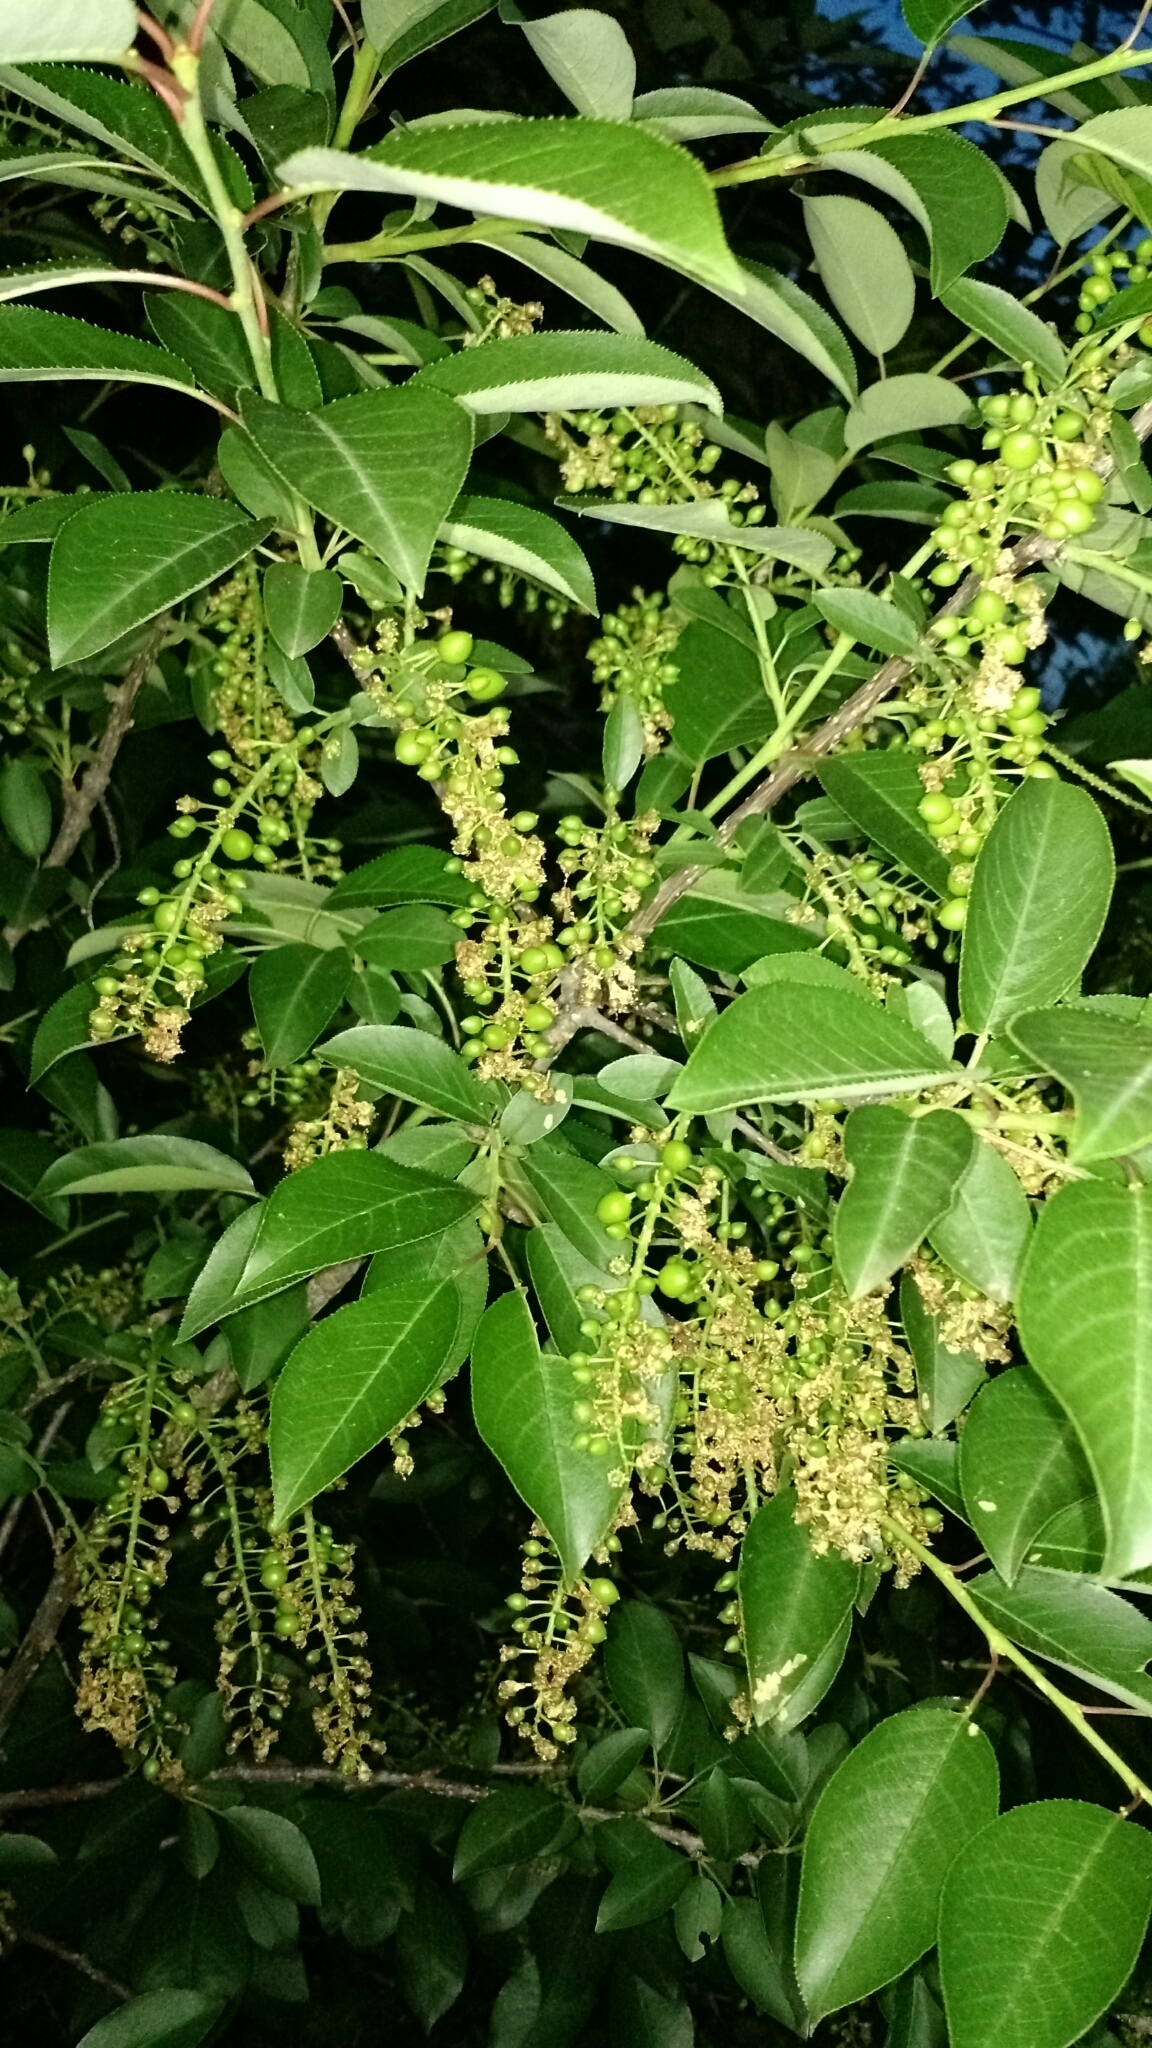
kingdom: Plantae
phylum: Tracheophyta
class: Magnoliopsida
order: Rosales
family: Rosaceae
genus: Prunus
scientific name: Prunus virginiana
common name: Chokecherry
